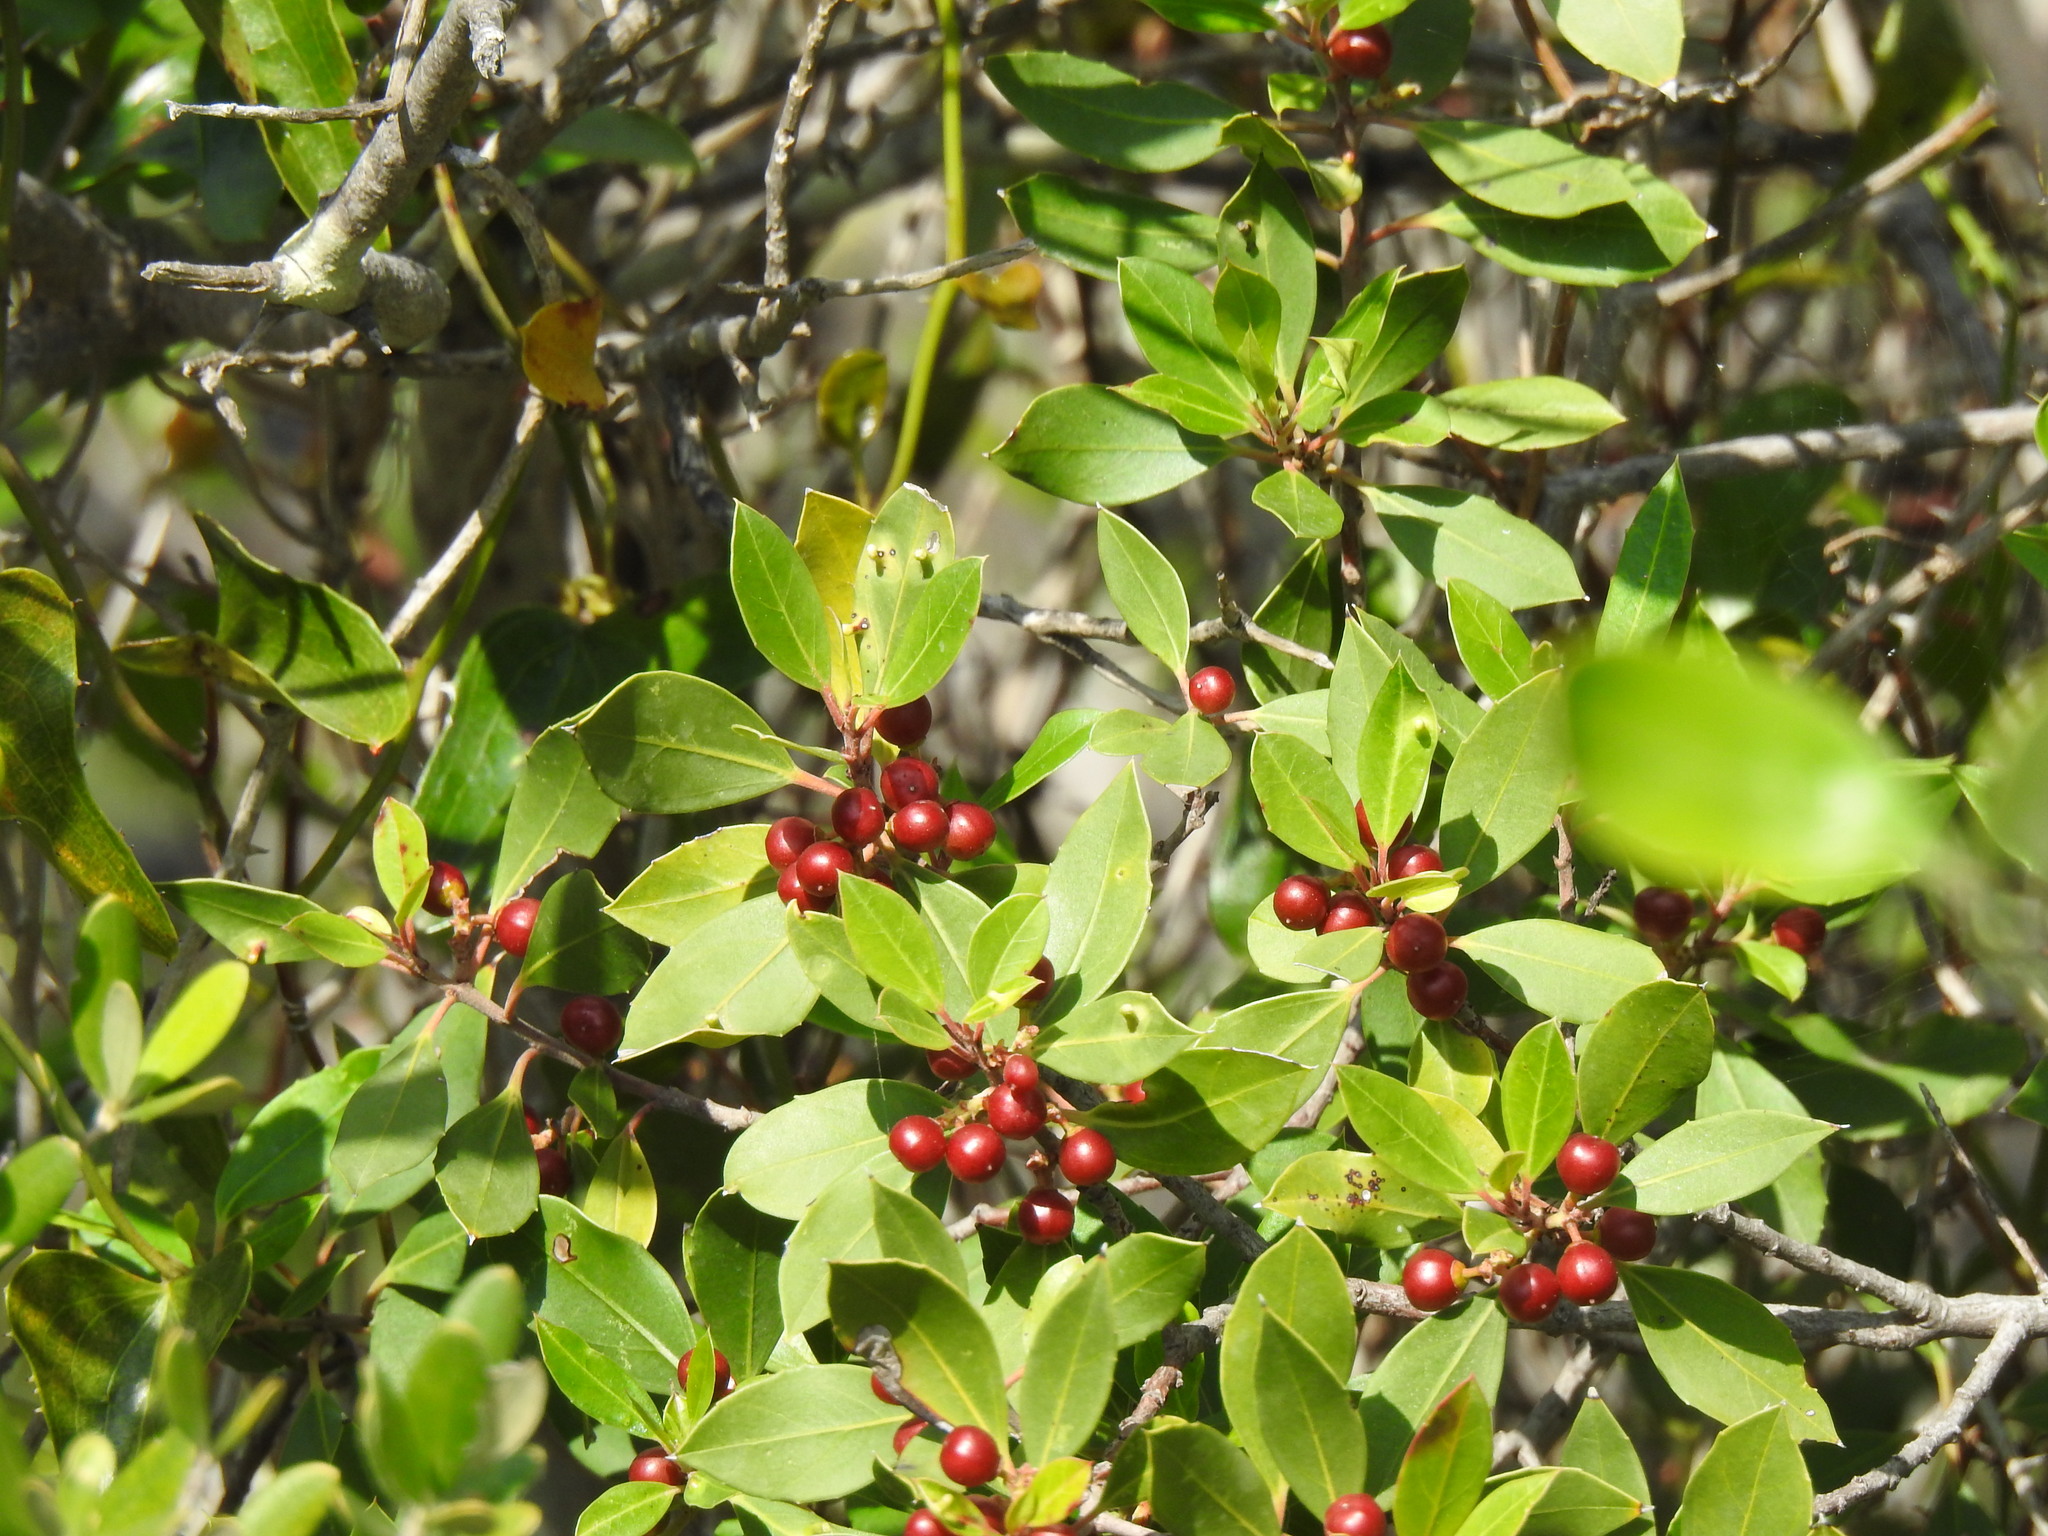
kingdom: Plantae
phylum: Tracheophyta
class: Magnoliopsida
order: Rosales
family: Rhamnaceae
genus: Rhamnus
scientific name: Rhamnus alaternus
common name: Mediterranean buckthorn
